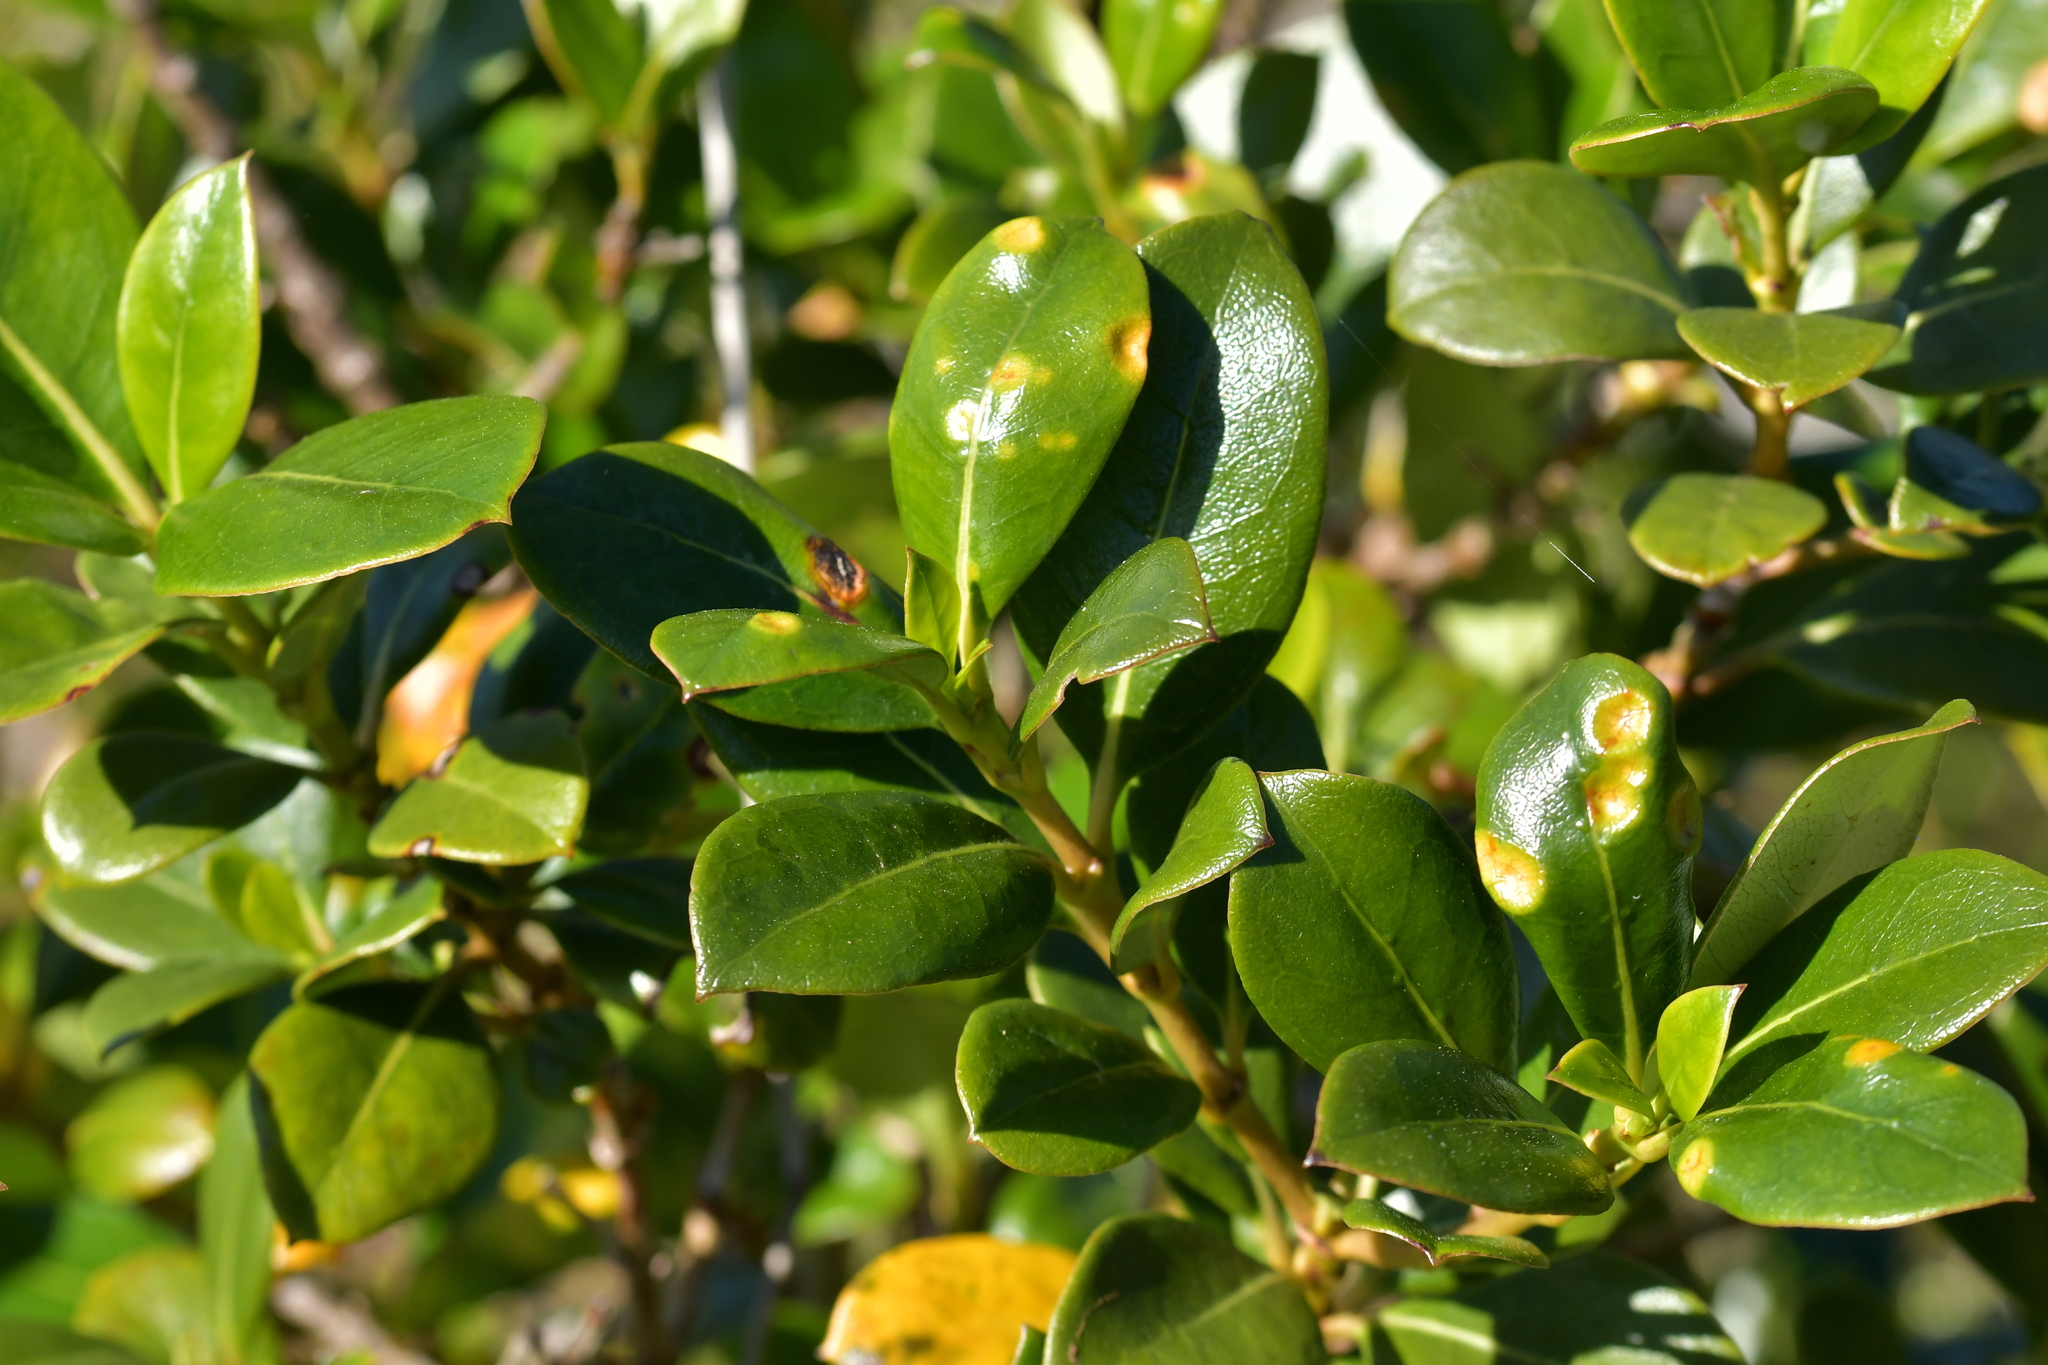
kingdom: Plantae
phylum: Tracheophyta
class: Magnoliopsida
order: Gentianales
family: Rubiaceae
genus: Coprosma
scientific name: Coprosma lucida
